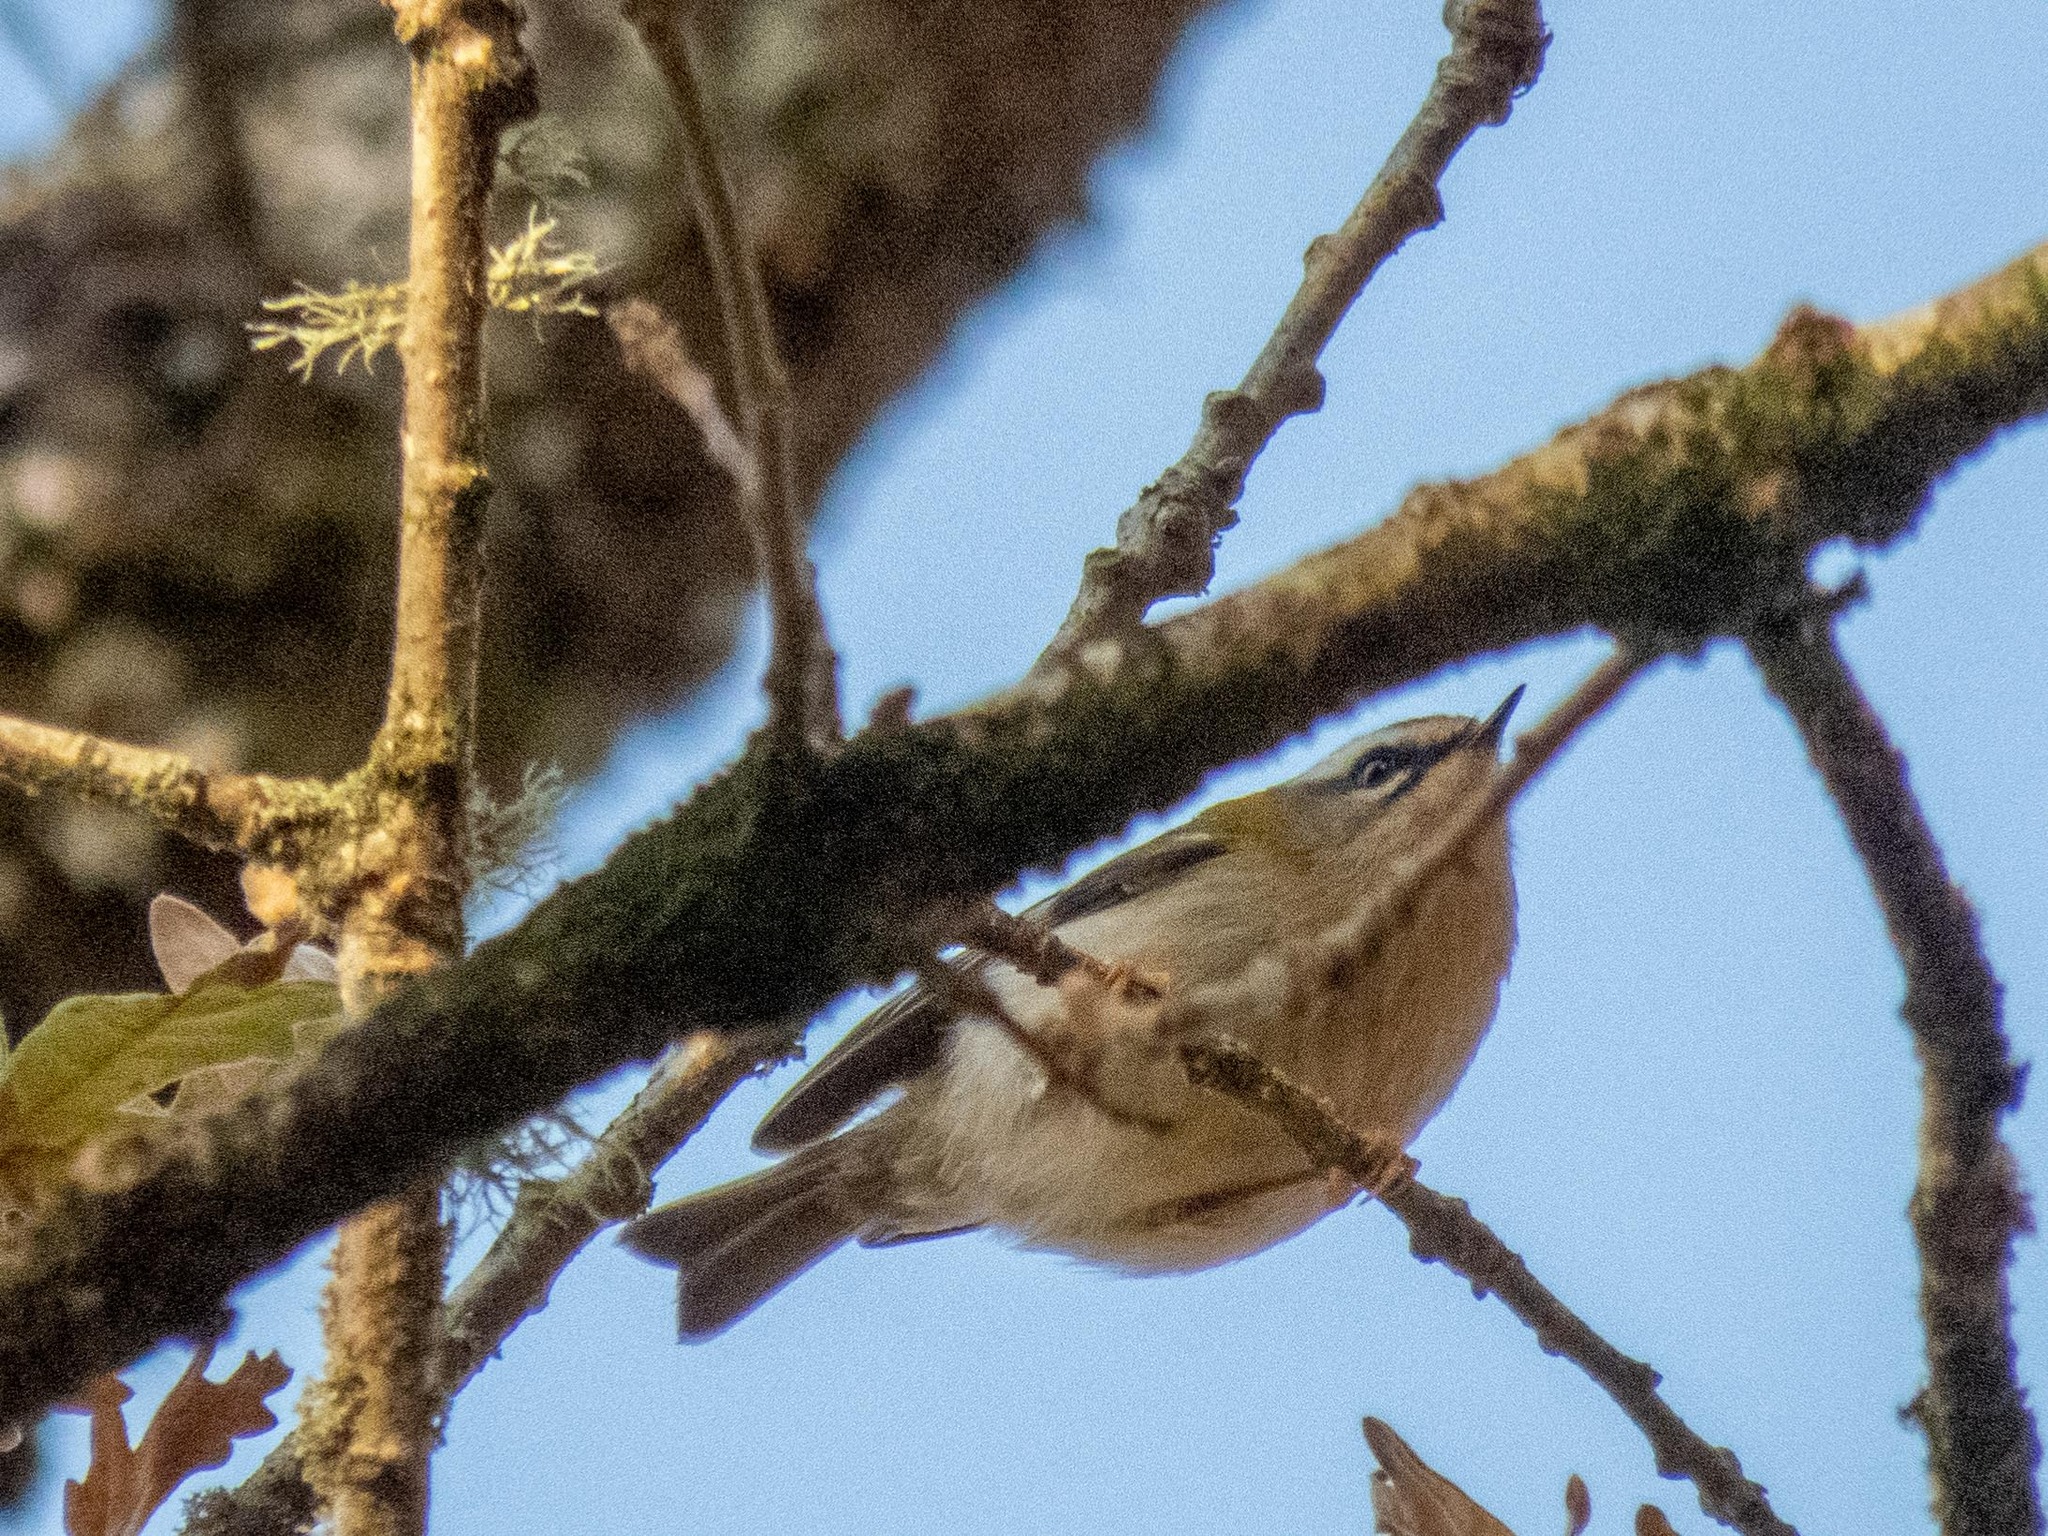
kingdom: Animalia
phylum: Chordata
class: Aves
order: Passeriformes
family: Regulidae
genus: Regulus
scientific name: Regulus ignicapilla
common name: Firecrest
